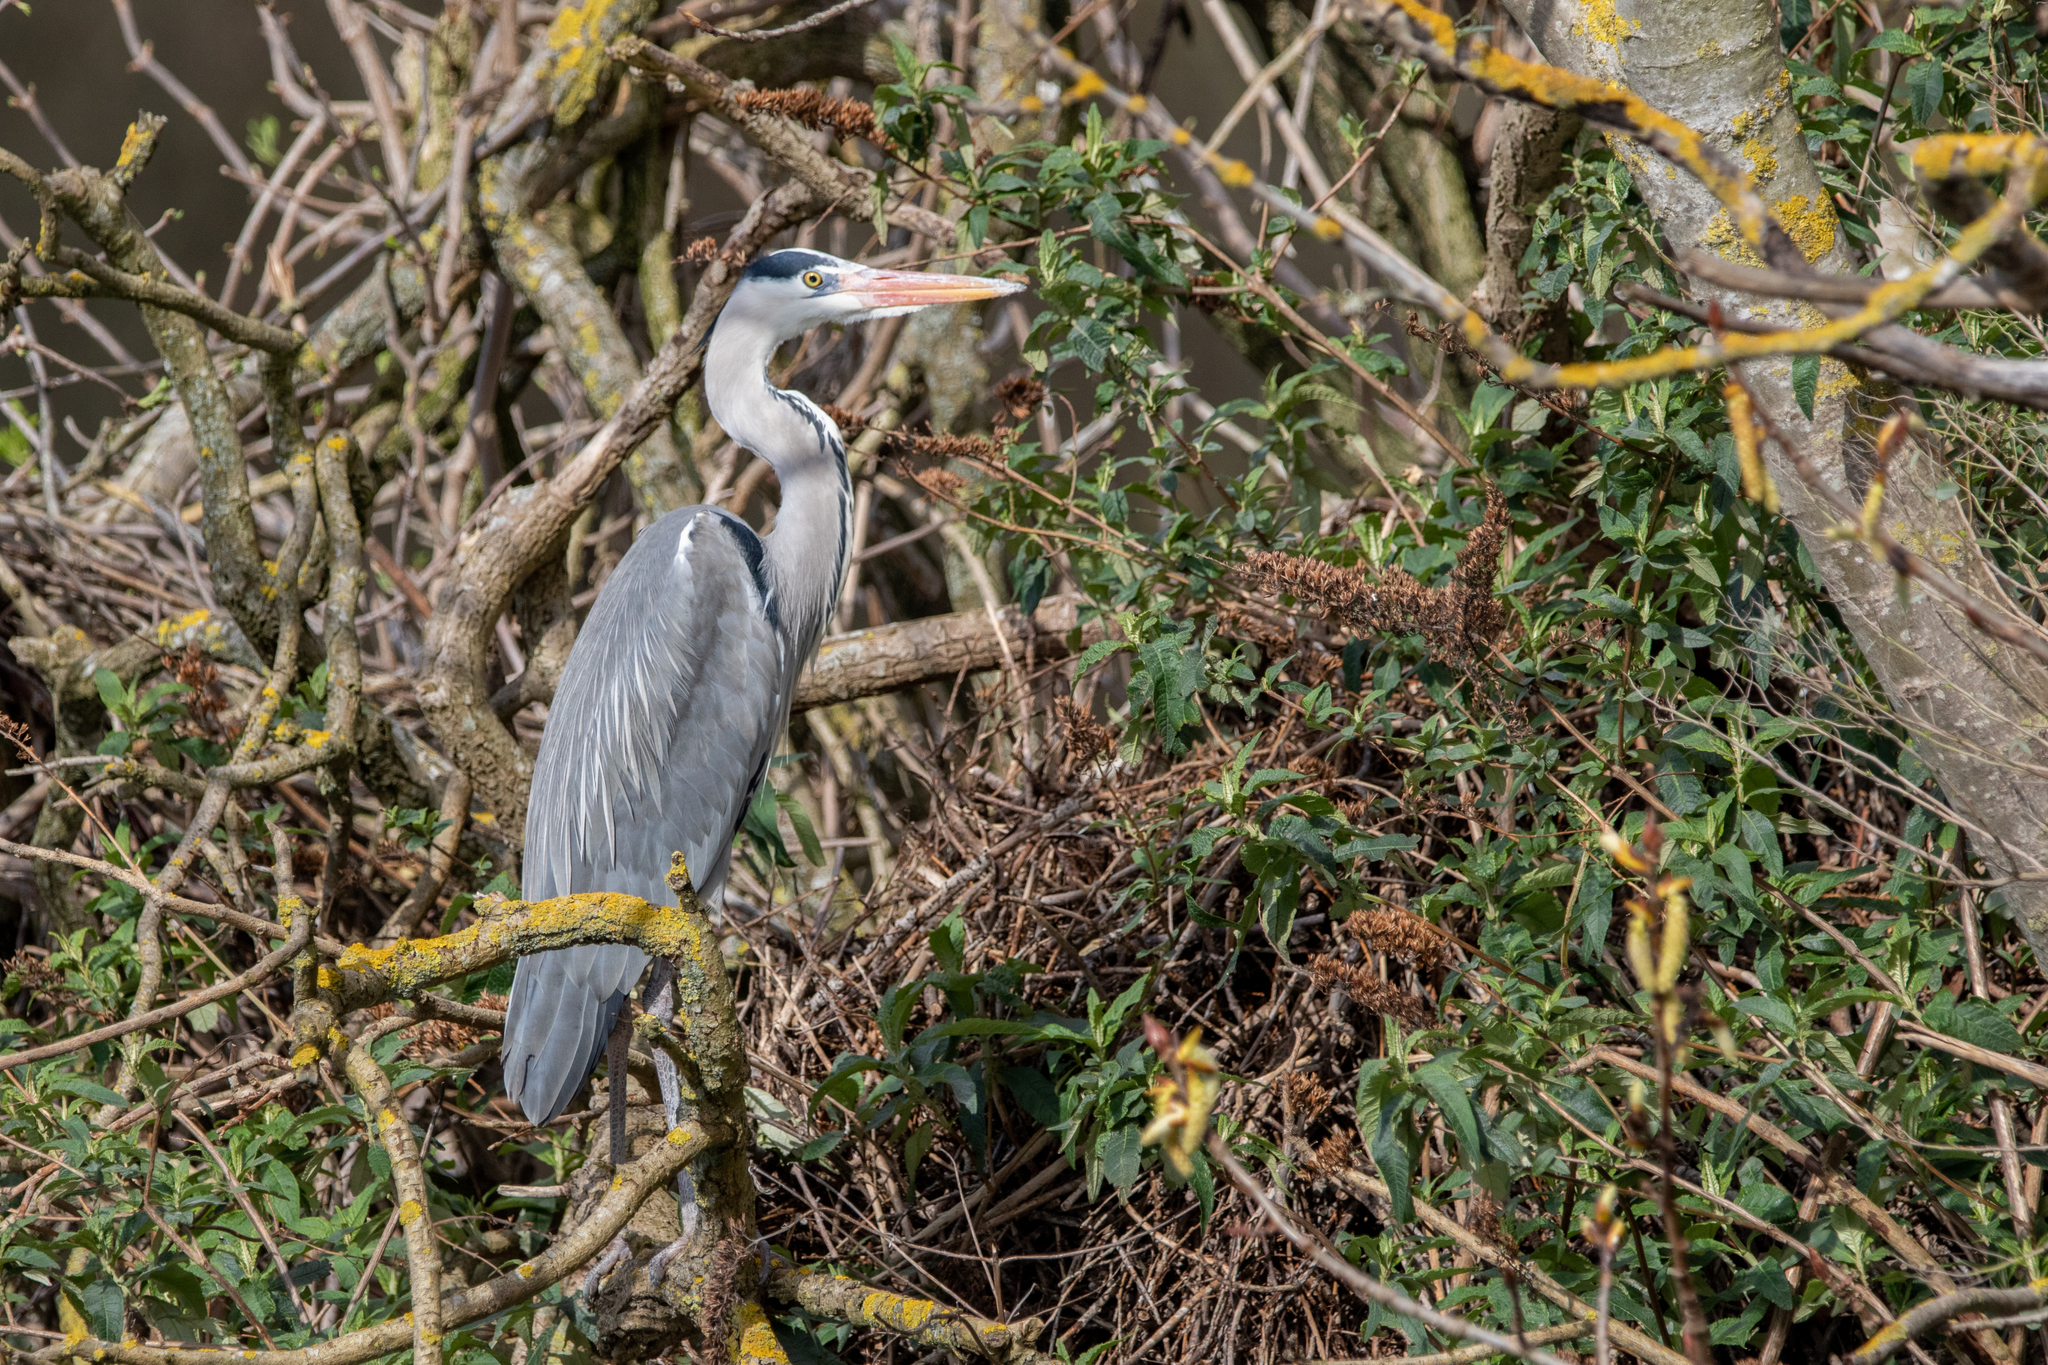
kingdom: Animalia
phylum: Chordata
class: Aves
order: Pelecaniformes
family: Ardeidae
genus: Ardea
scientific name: Ardea cinerea
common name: Grey heron
